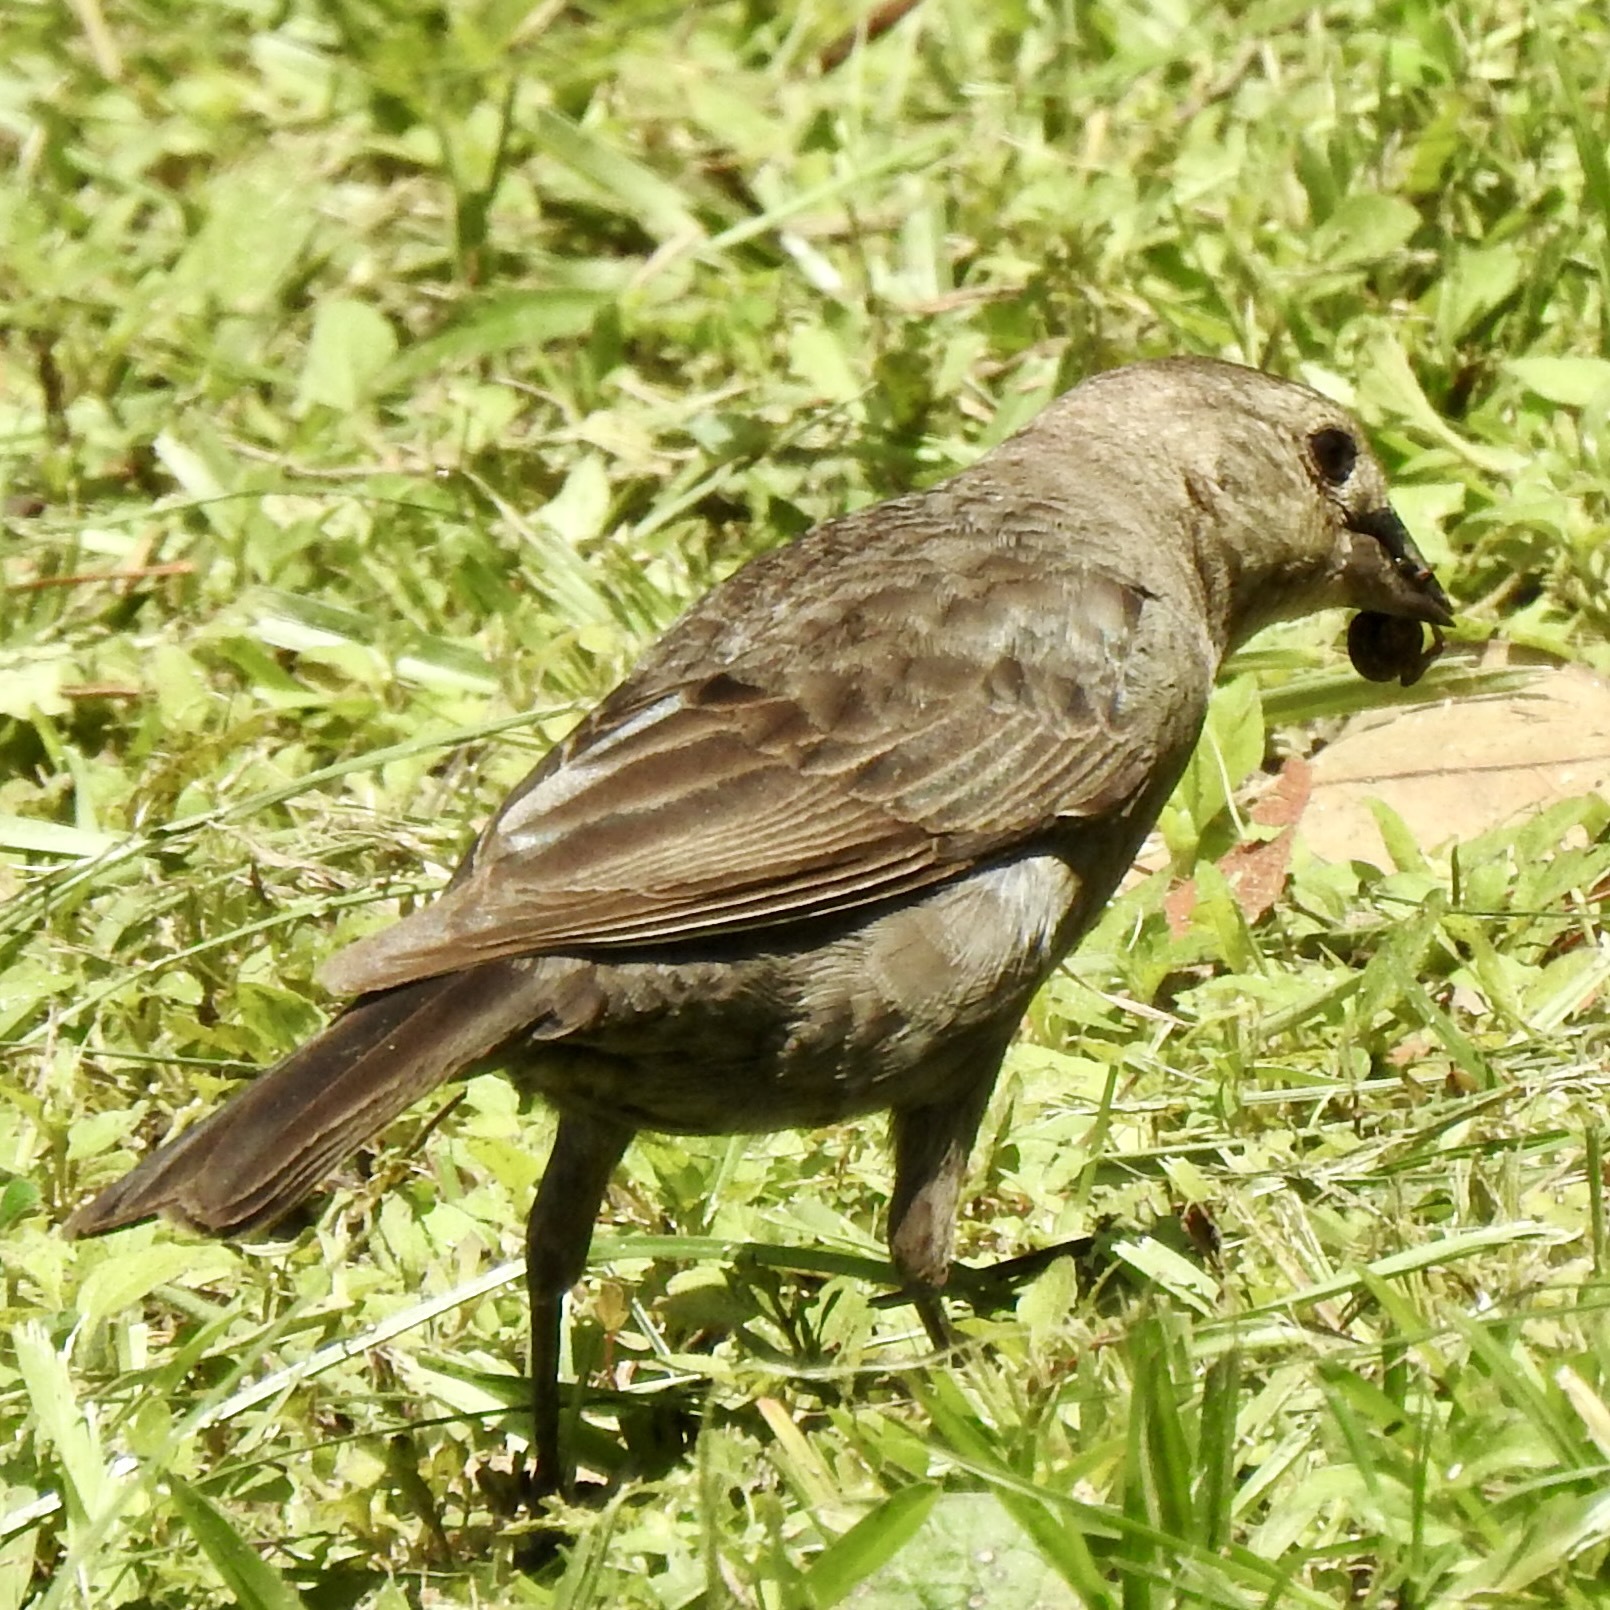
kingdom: Animalia
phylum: Chordata
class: Aves
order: Passeriformes
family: Icteridae
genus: Molothrus
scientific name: Molothrus ater
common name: Brown-headed cowbird
